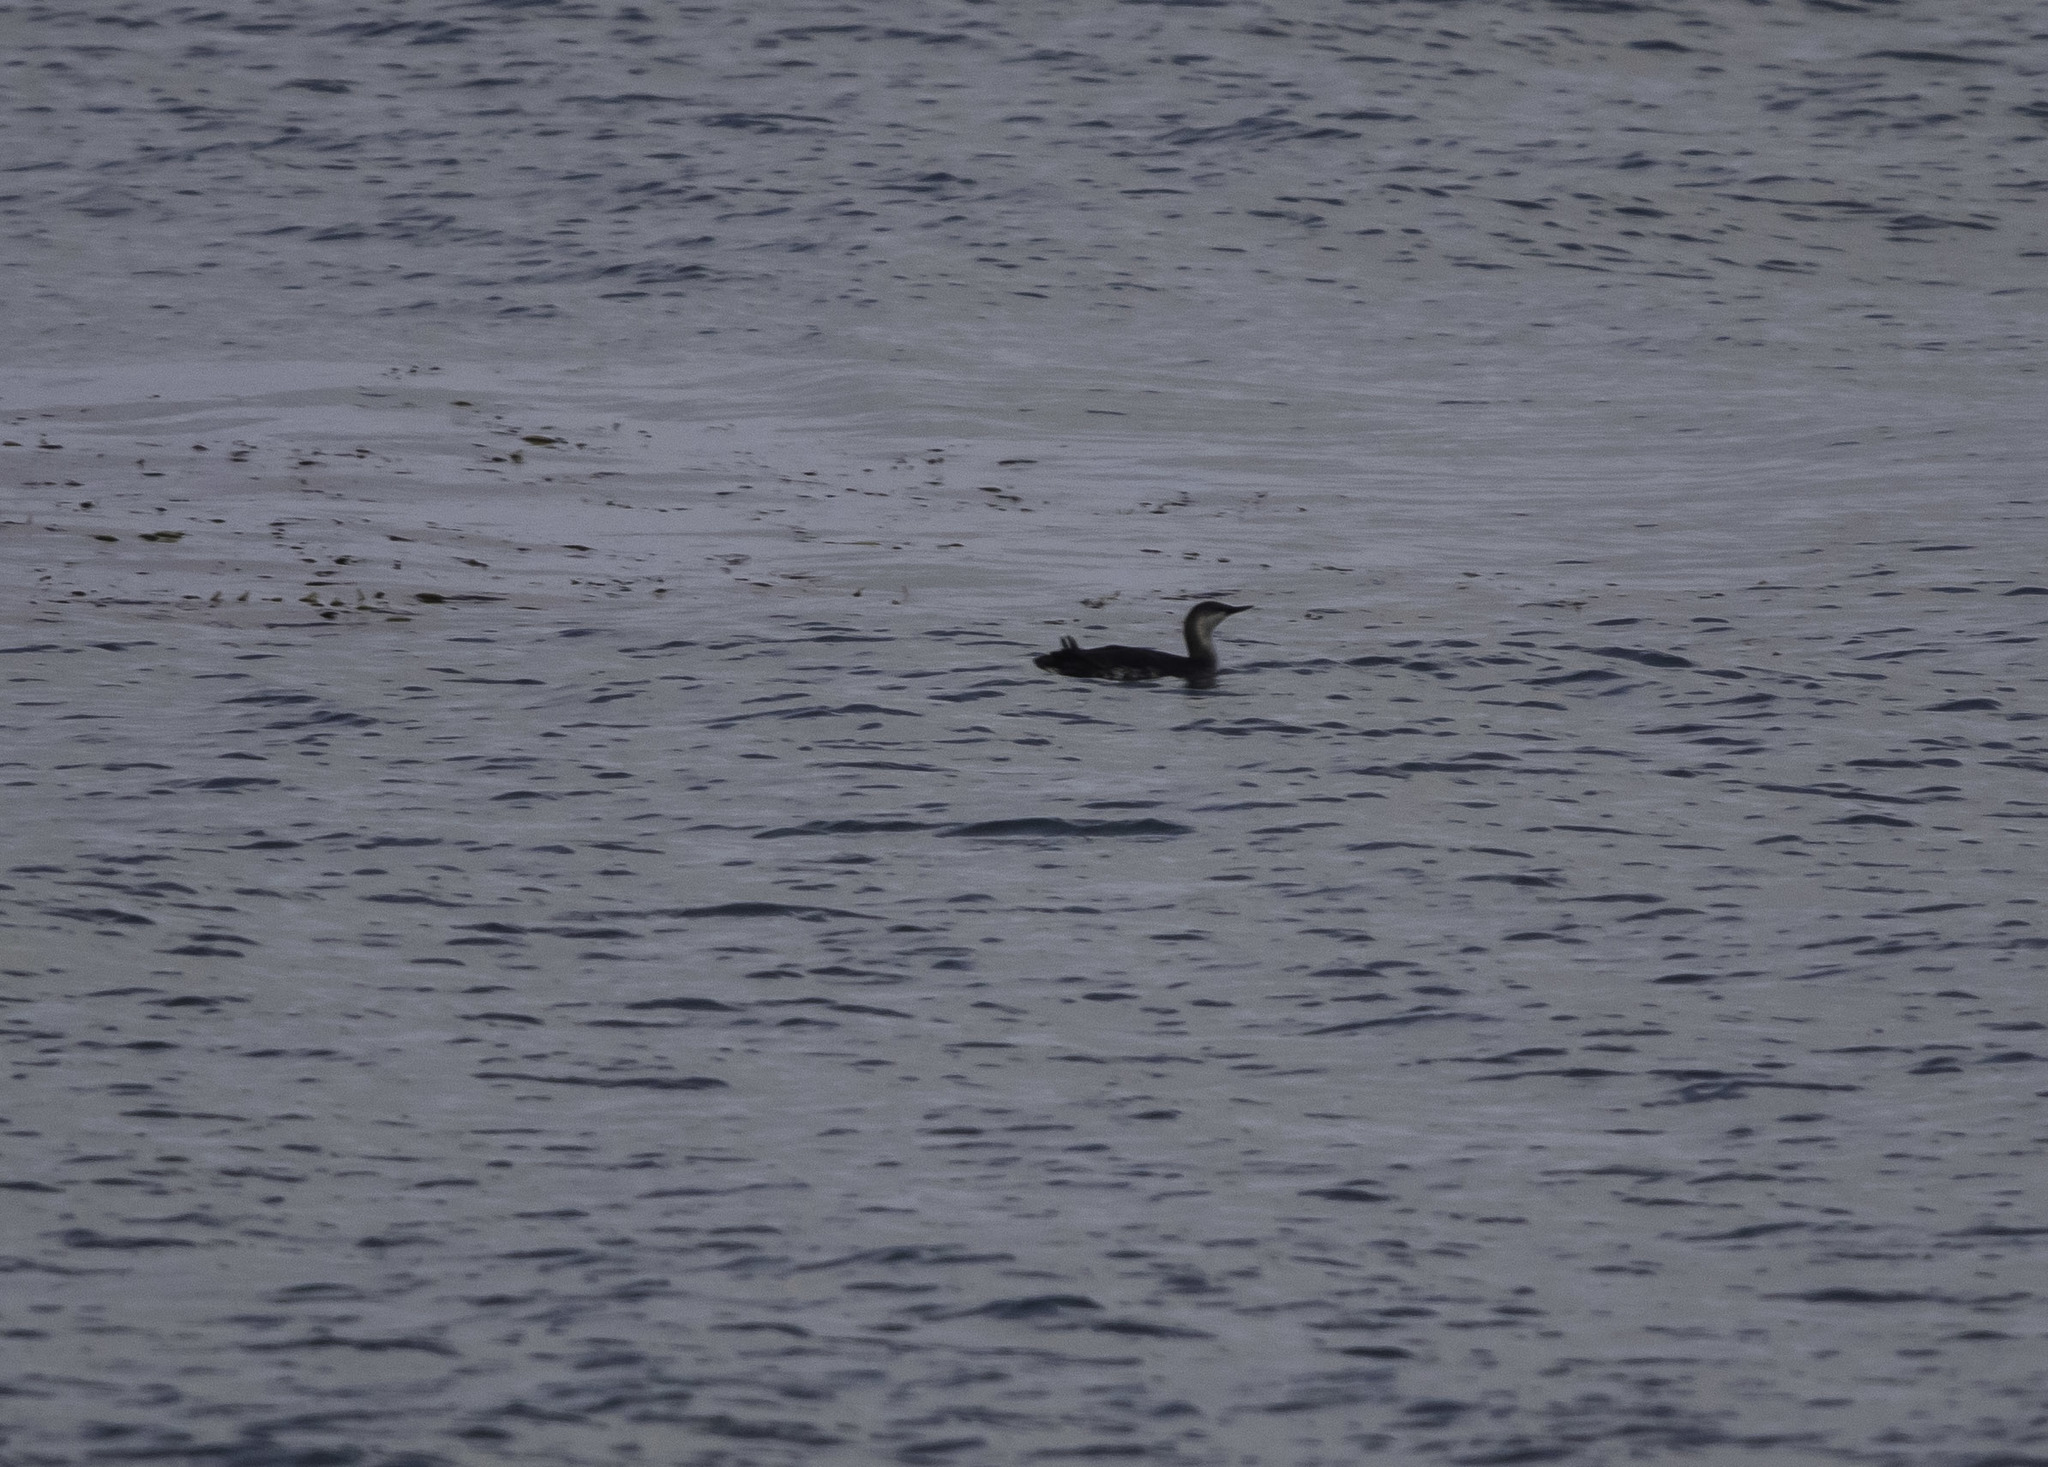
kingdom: Animalia
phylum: Chordata
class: Aves
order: Gaviiformes
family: Gaviidae
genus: Gavia
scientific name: Gavia stellata
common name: Red-throated loon
